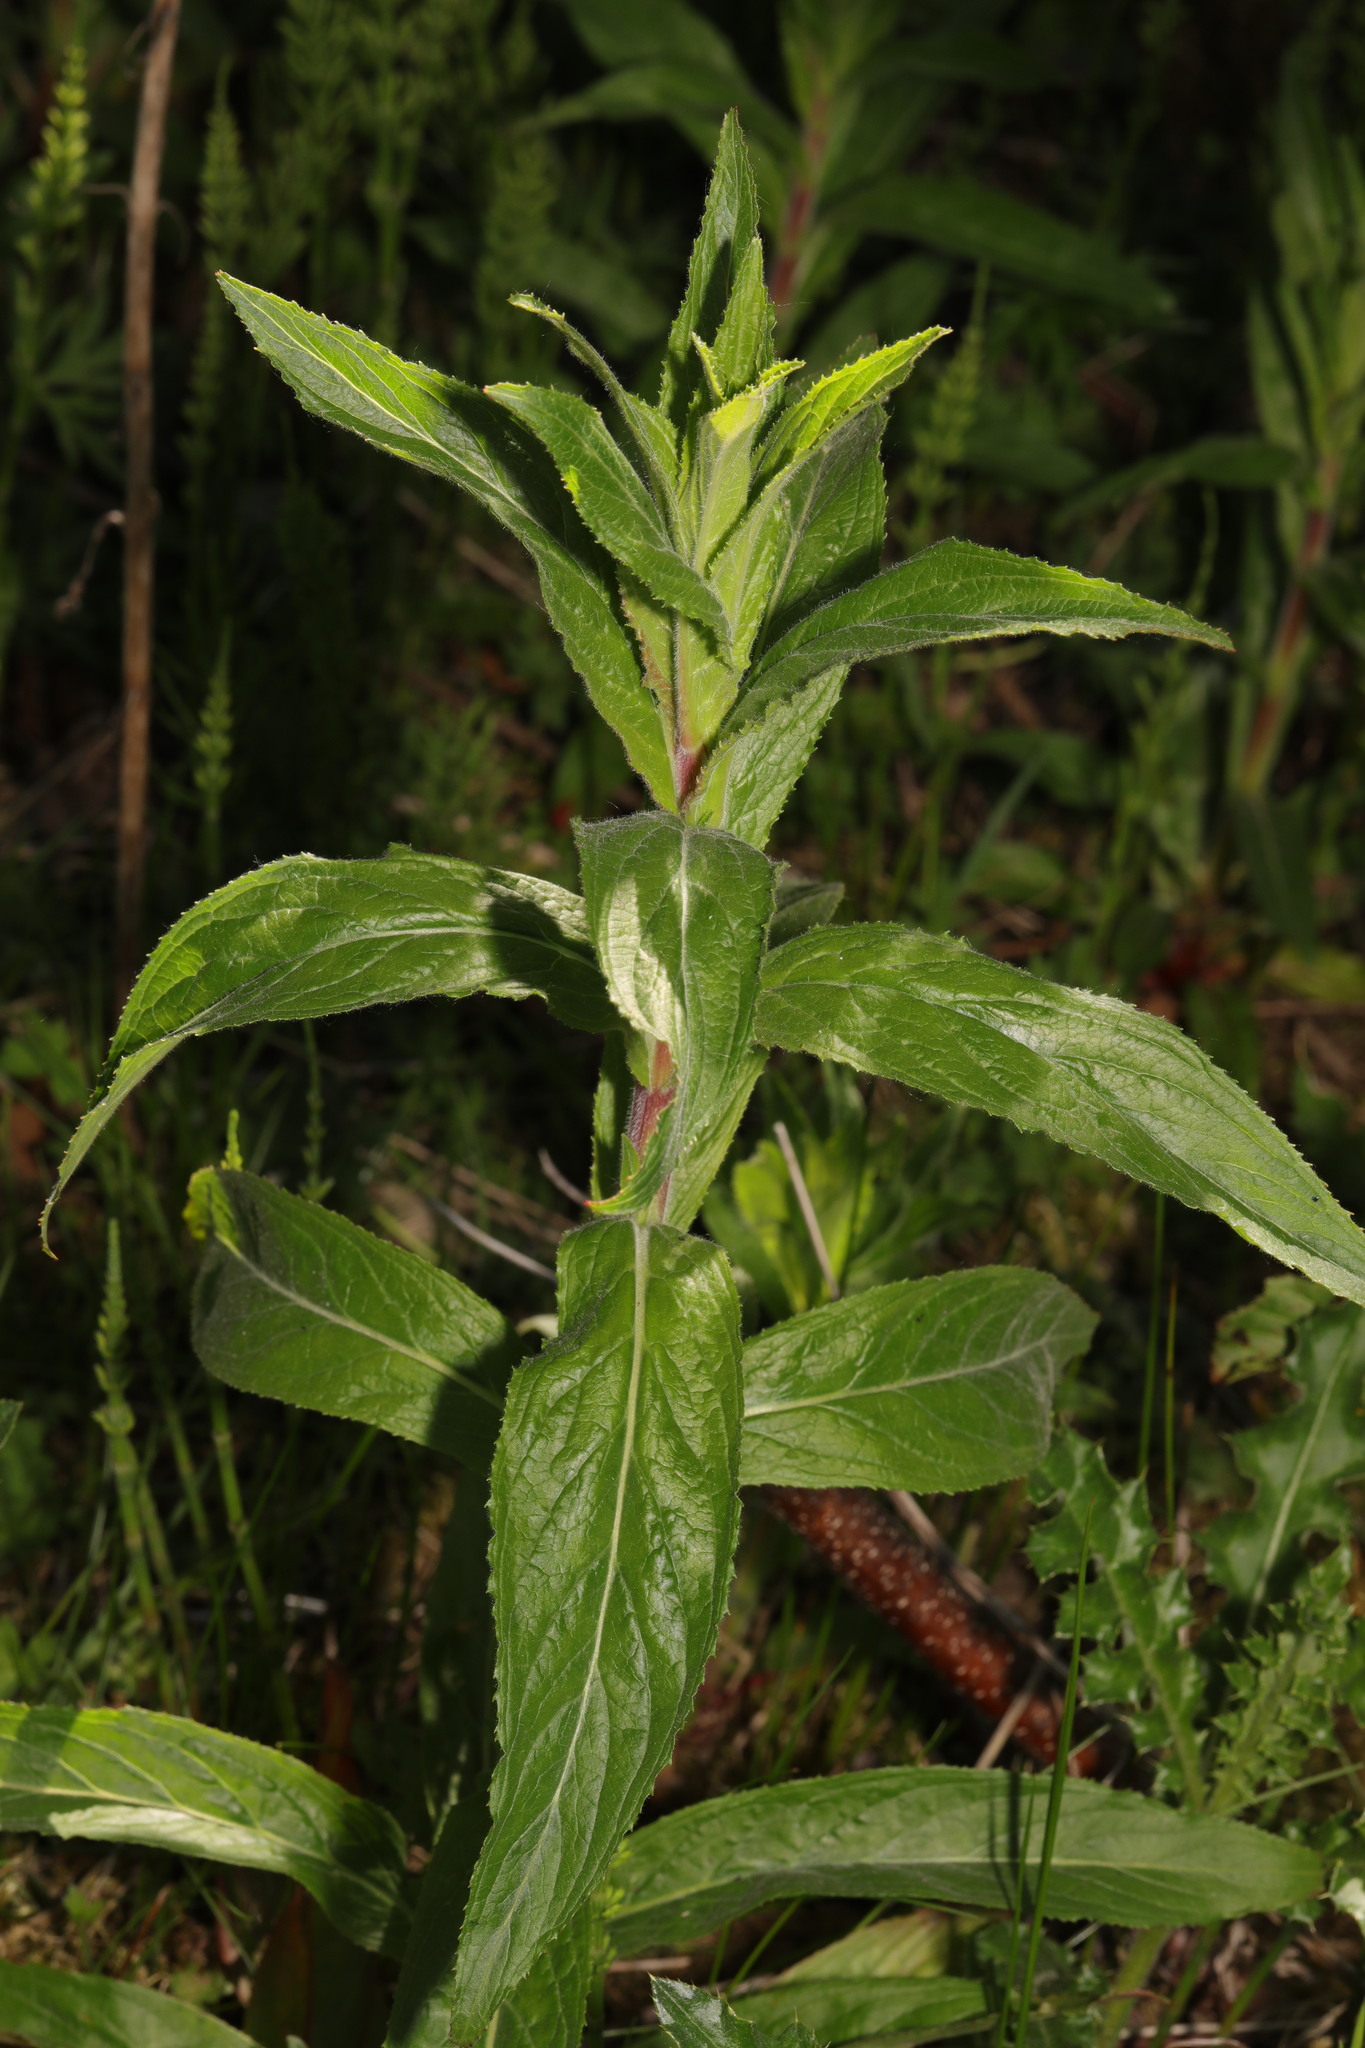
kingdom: Plantae
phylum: Tracheophyta
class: Magnoliopsida
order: Myrtales
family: Onagraceae
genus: Epilobium
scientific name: Epilobium hirsutum
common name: Great willowherb
